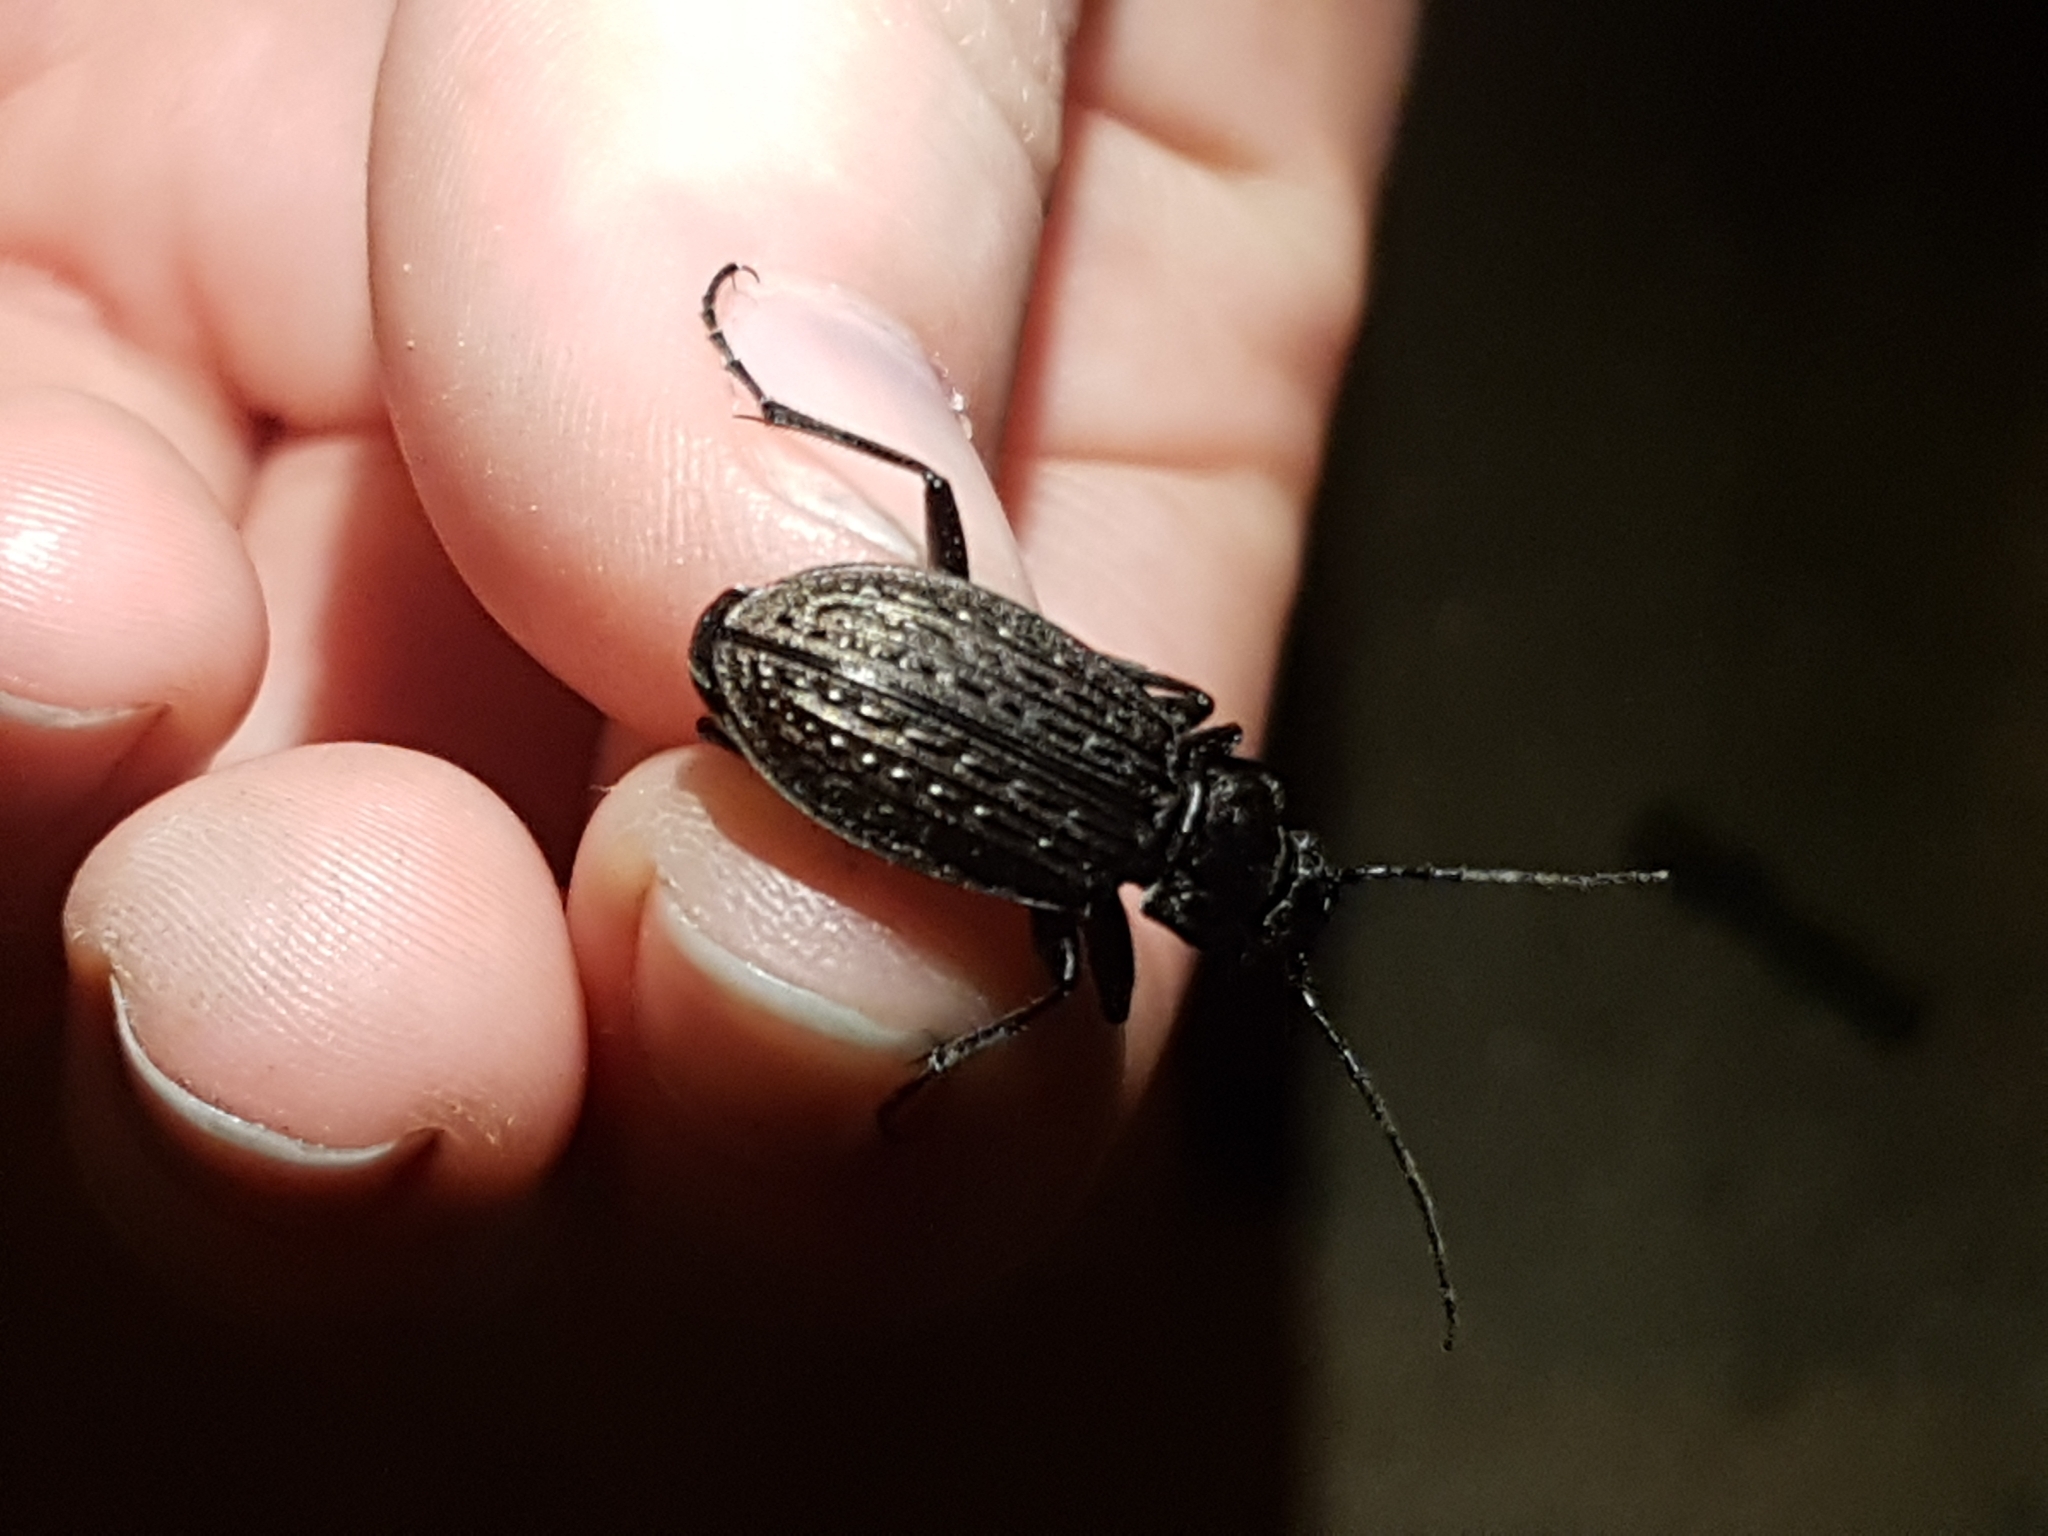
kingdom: Animalia
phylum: Arthropoda
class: Insecta
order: Coleoptera
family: Carabidae
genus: Carabus
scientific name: Carabus granulatus
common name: Granulate ground beetle
